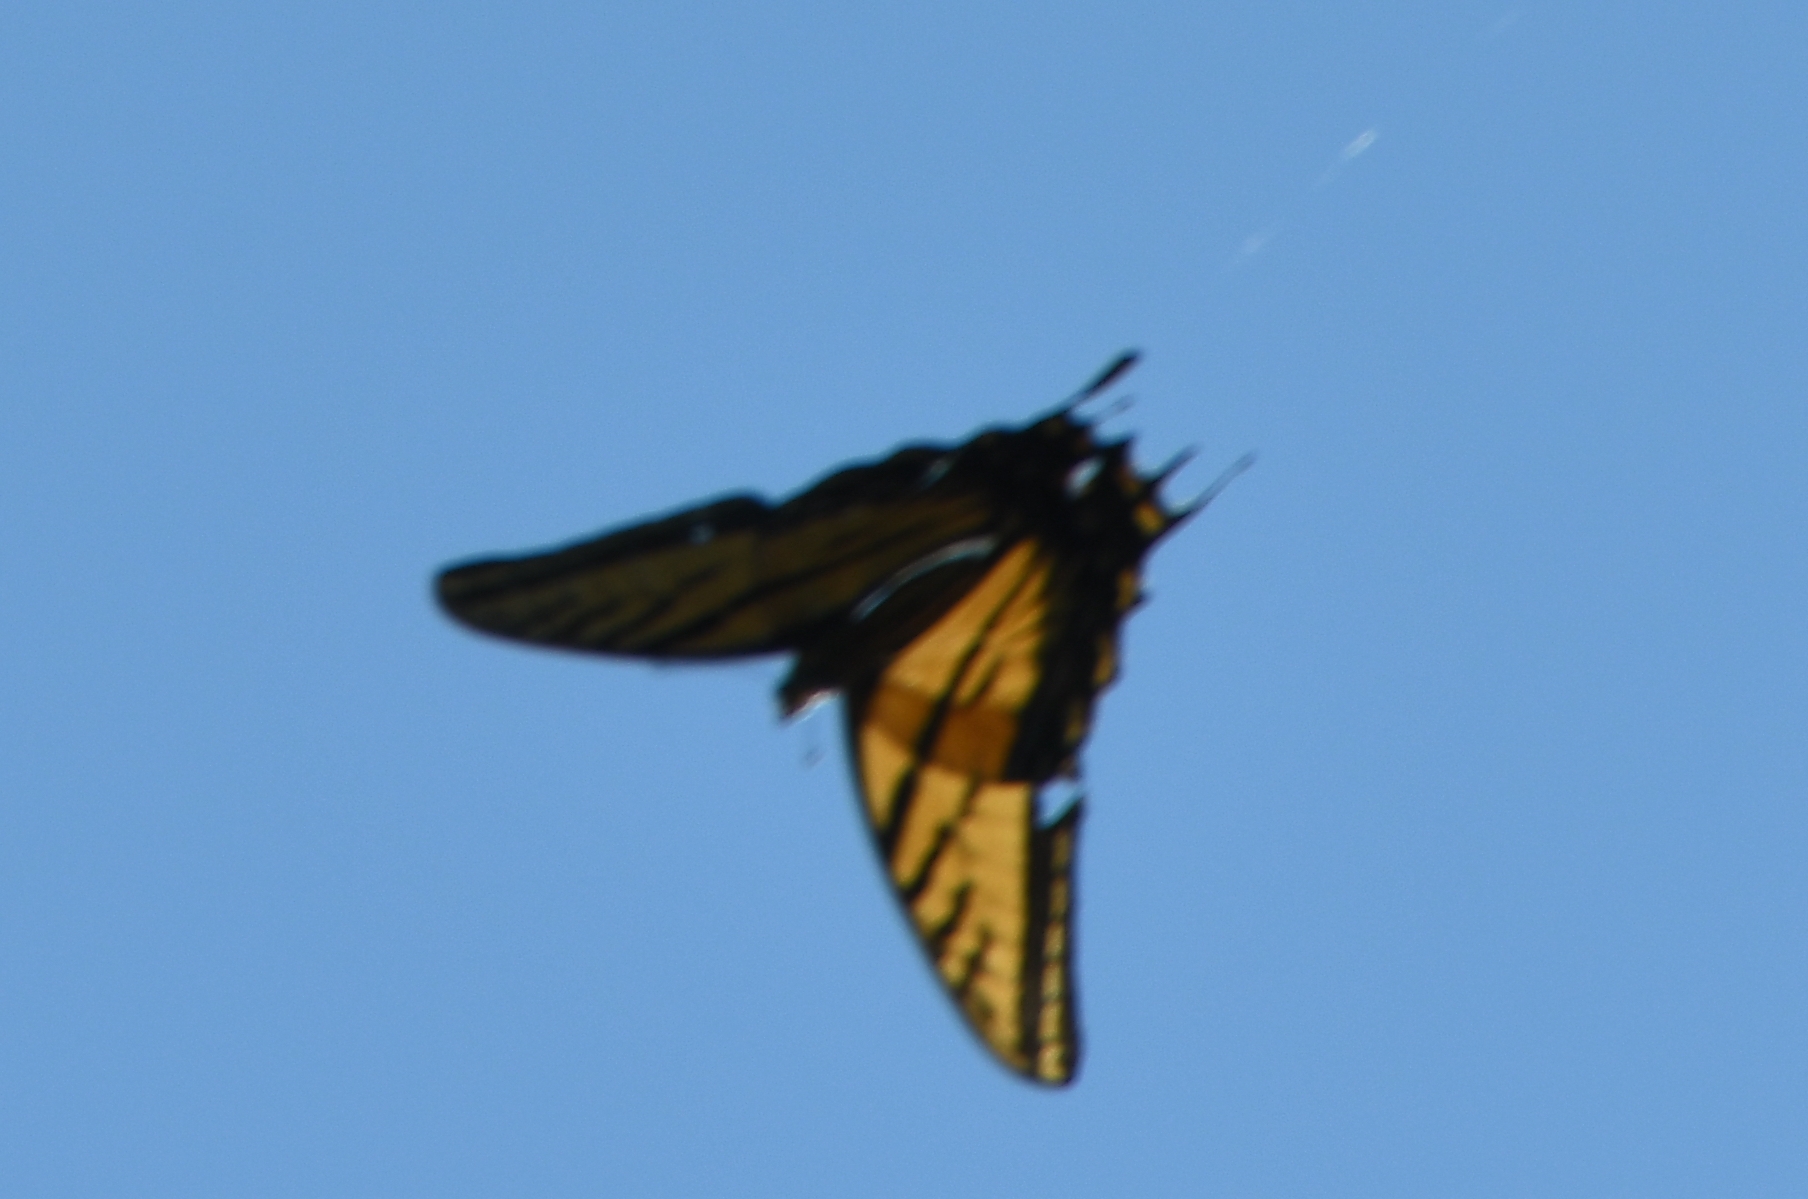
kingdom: Animalia
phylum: Arthropoda
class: Insecta
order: Lepidoptera
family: Papilionidae
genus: Papilio
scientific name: Papilio multicaudata
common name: Two-tailed tiger swallowtail
